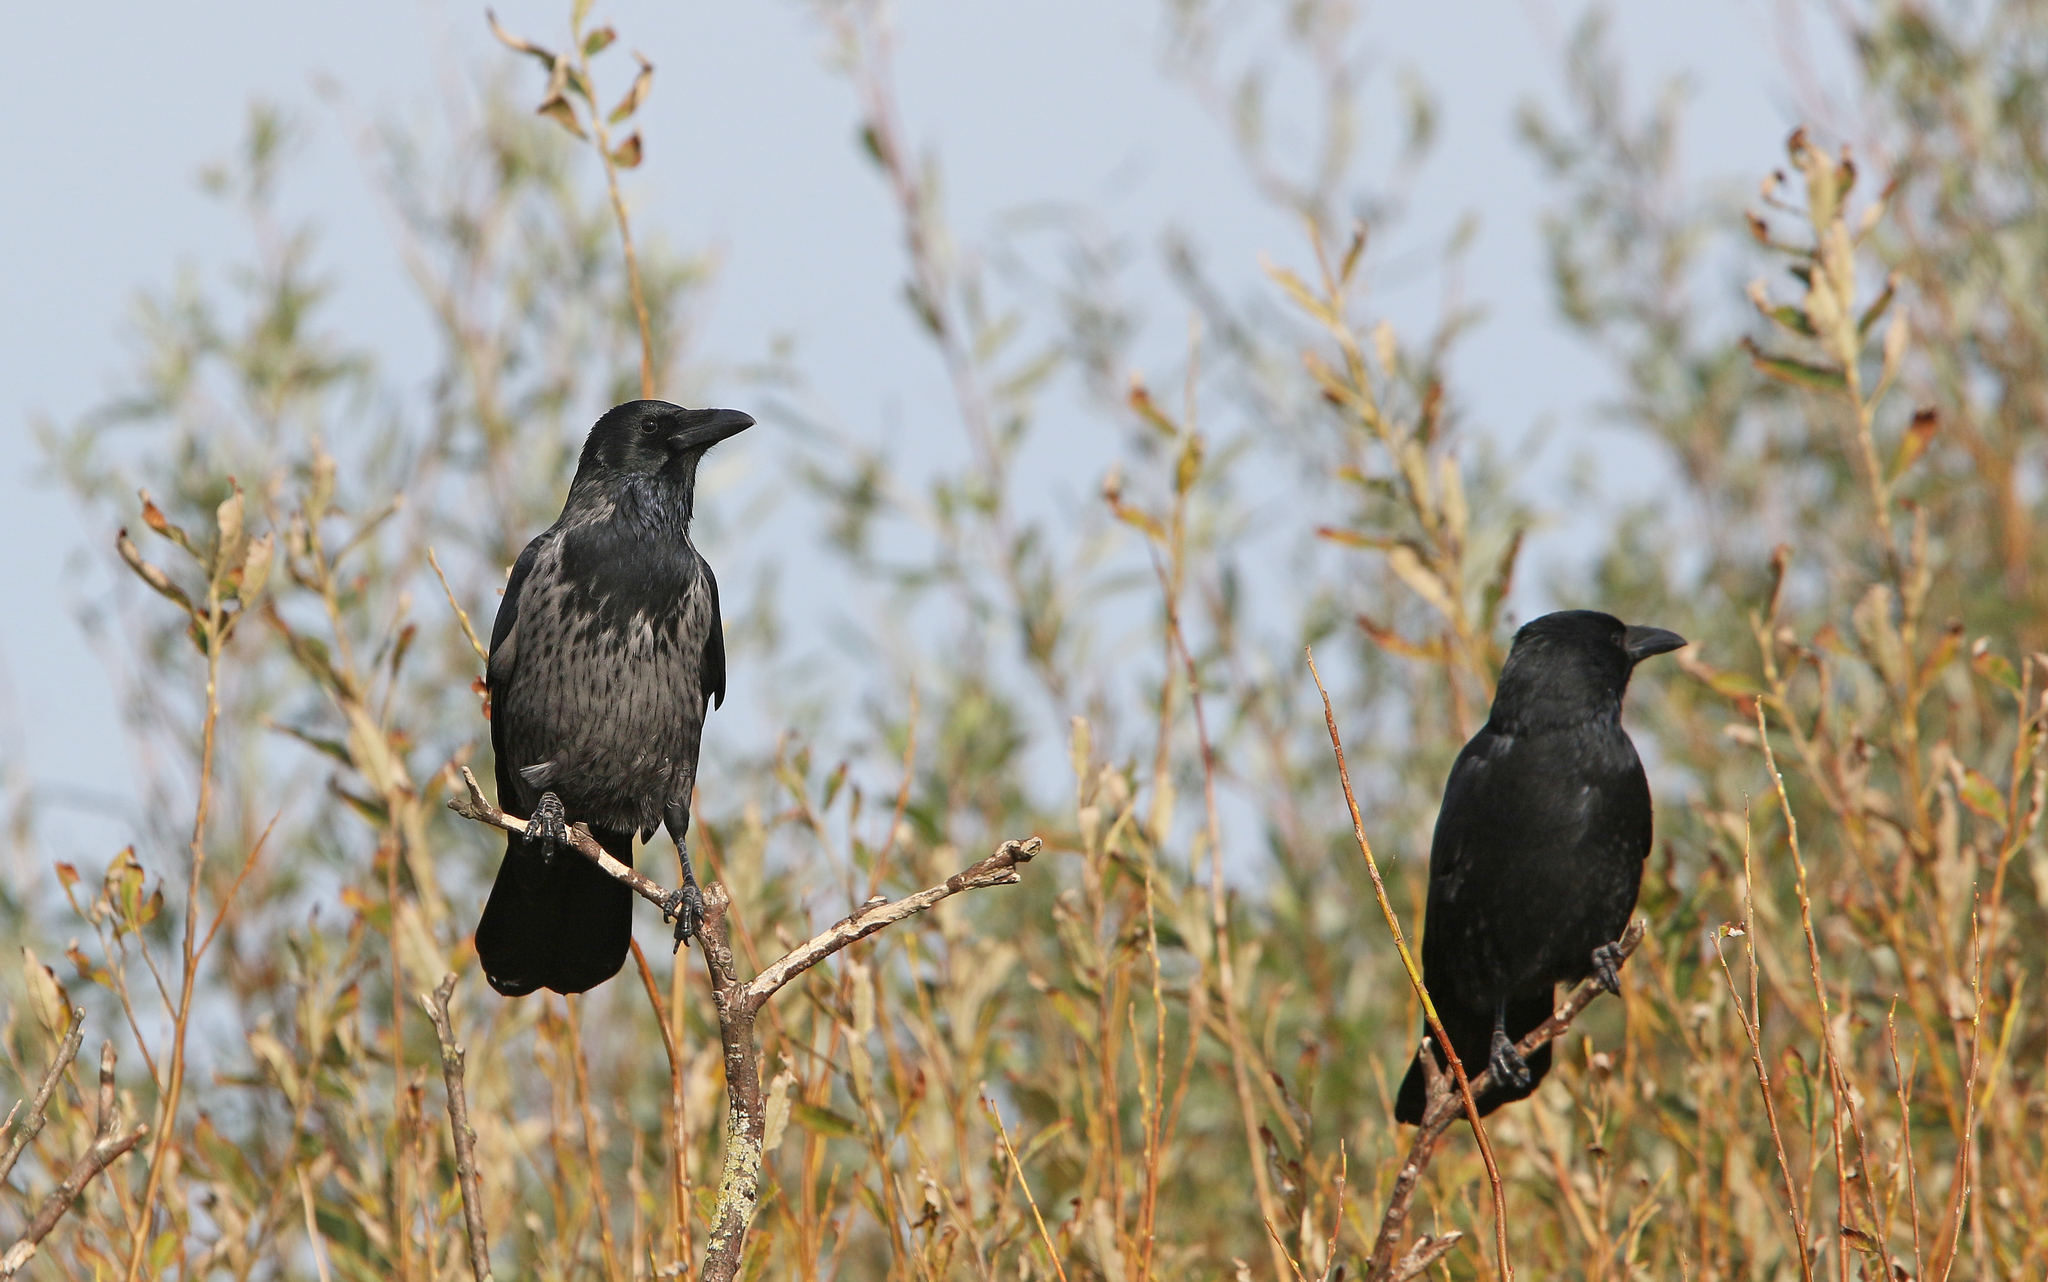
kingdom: Animalia
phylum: Chordata
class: Aves
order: Passeriformes
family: Corvidae
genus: Corvus
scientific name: Corvus
